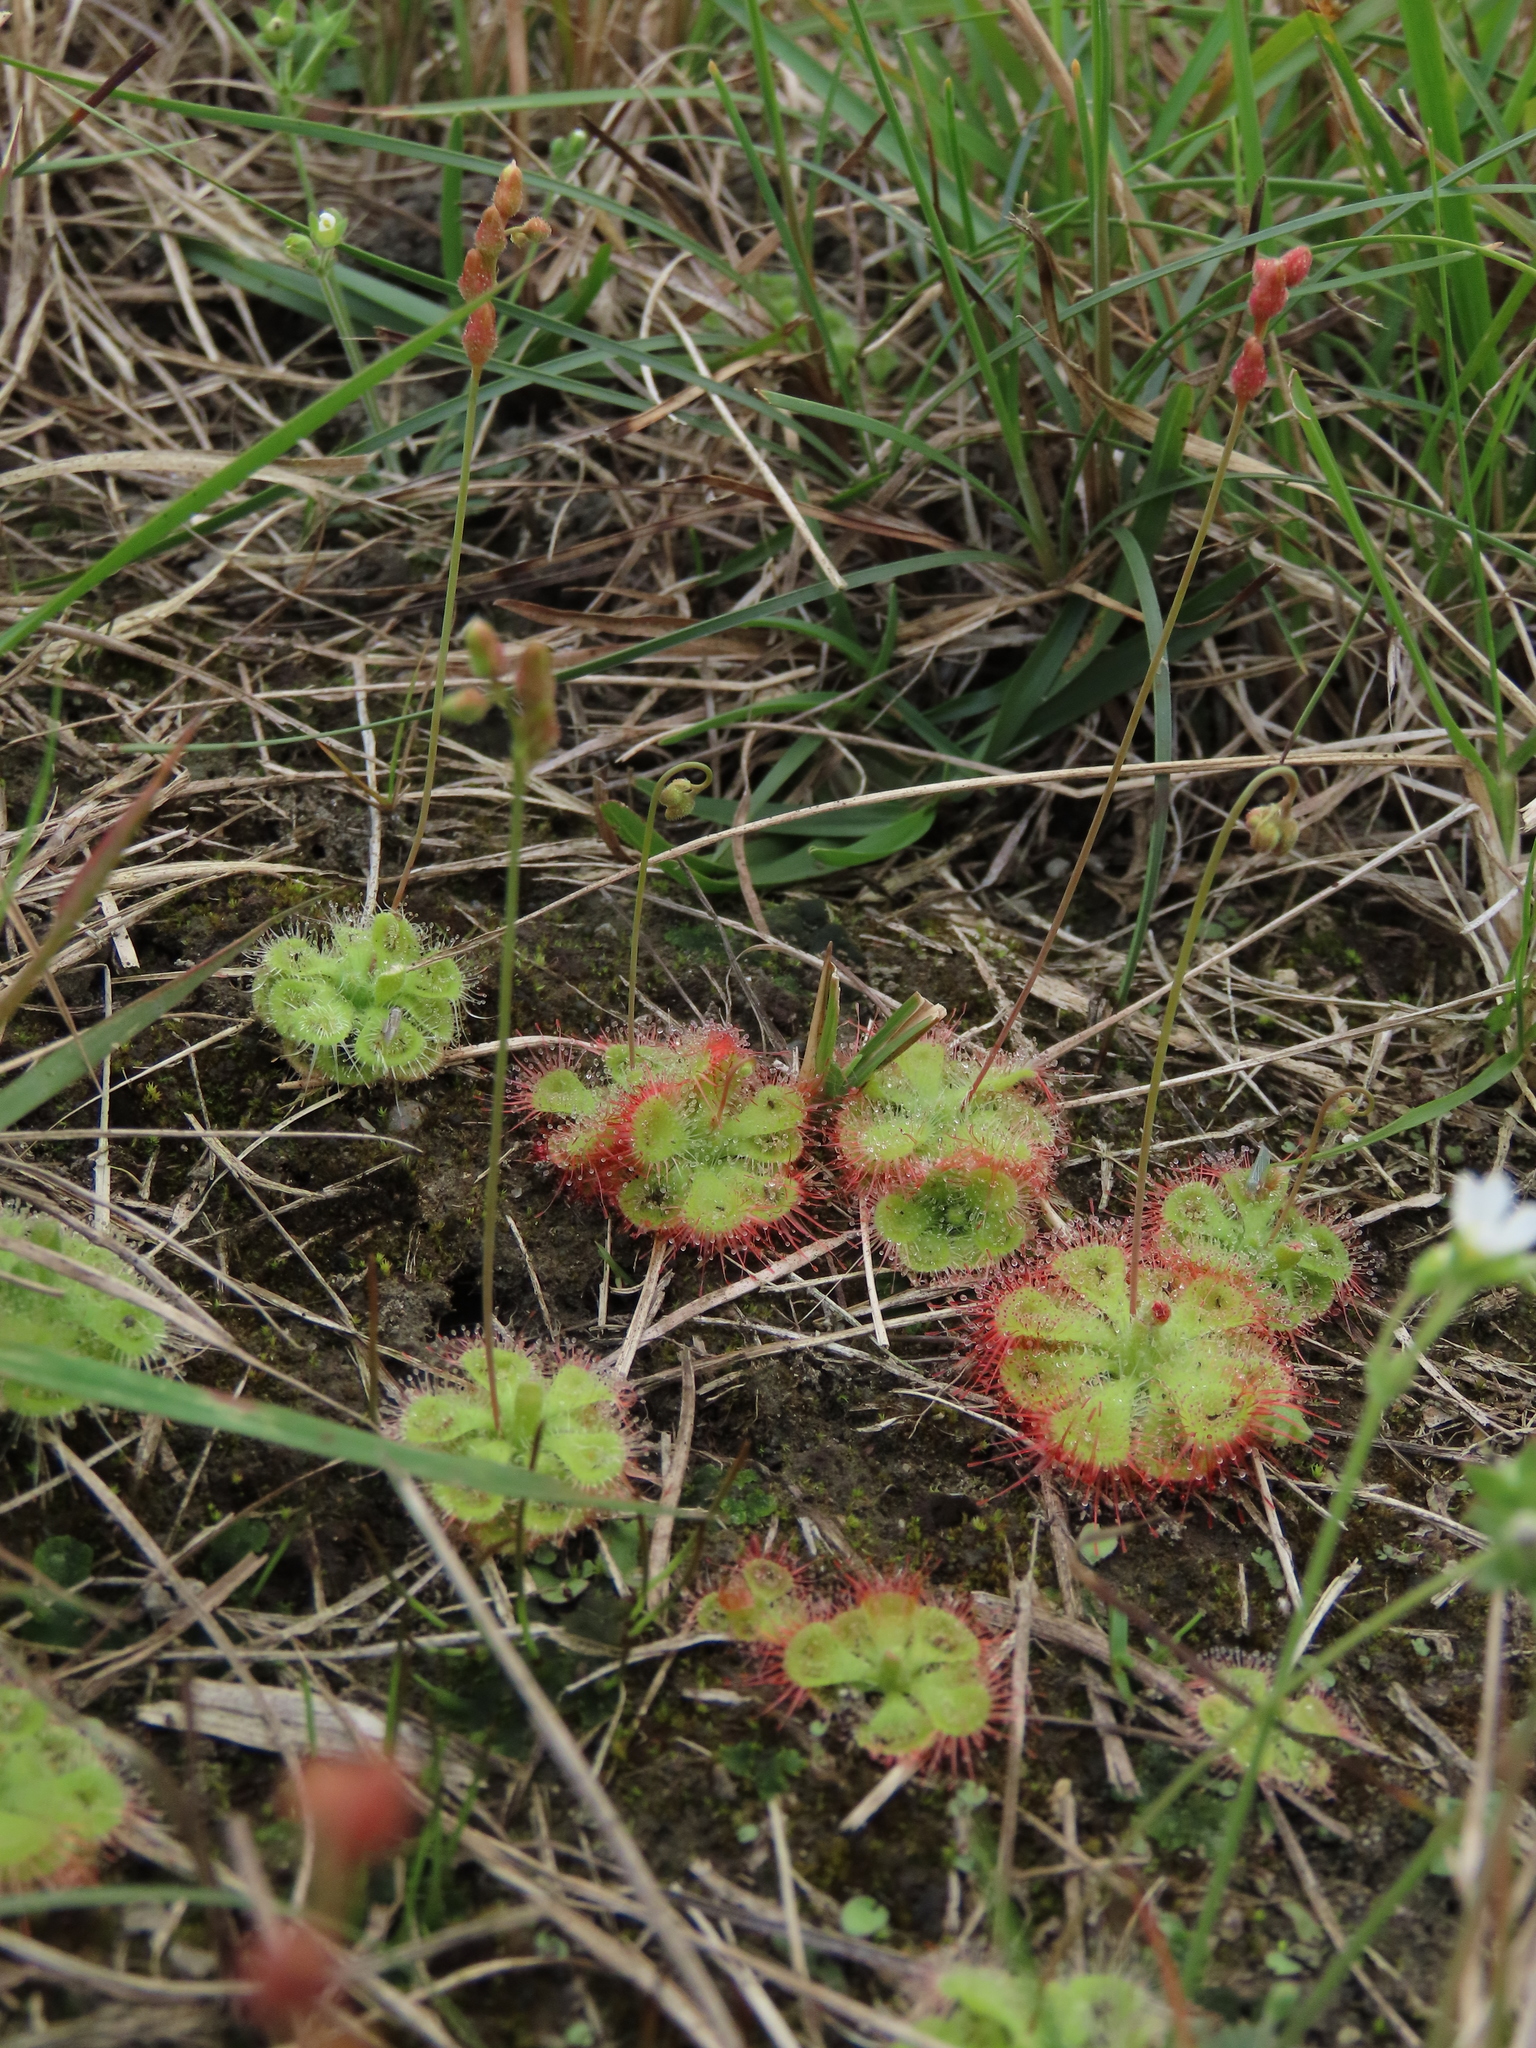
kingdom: Plantae
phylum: Tracheophyta
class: Magnoliopsida
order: Caryophyllales
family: Droseraceae
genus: Drosera
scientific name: Drosera spatulata
